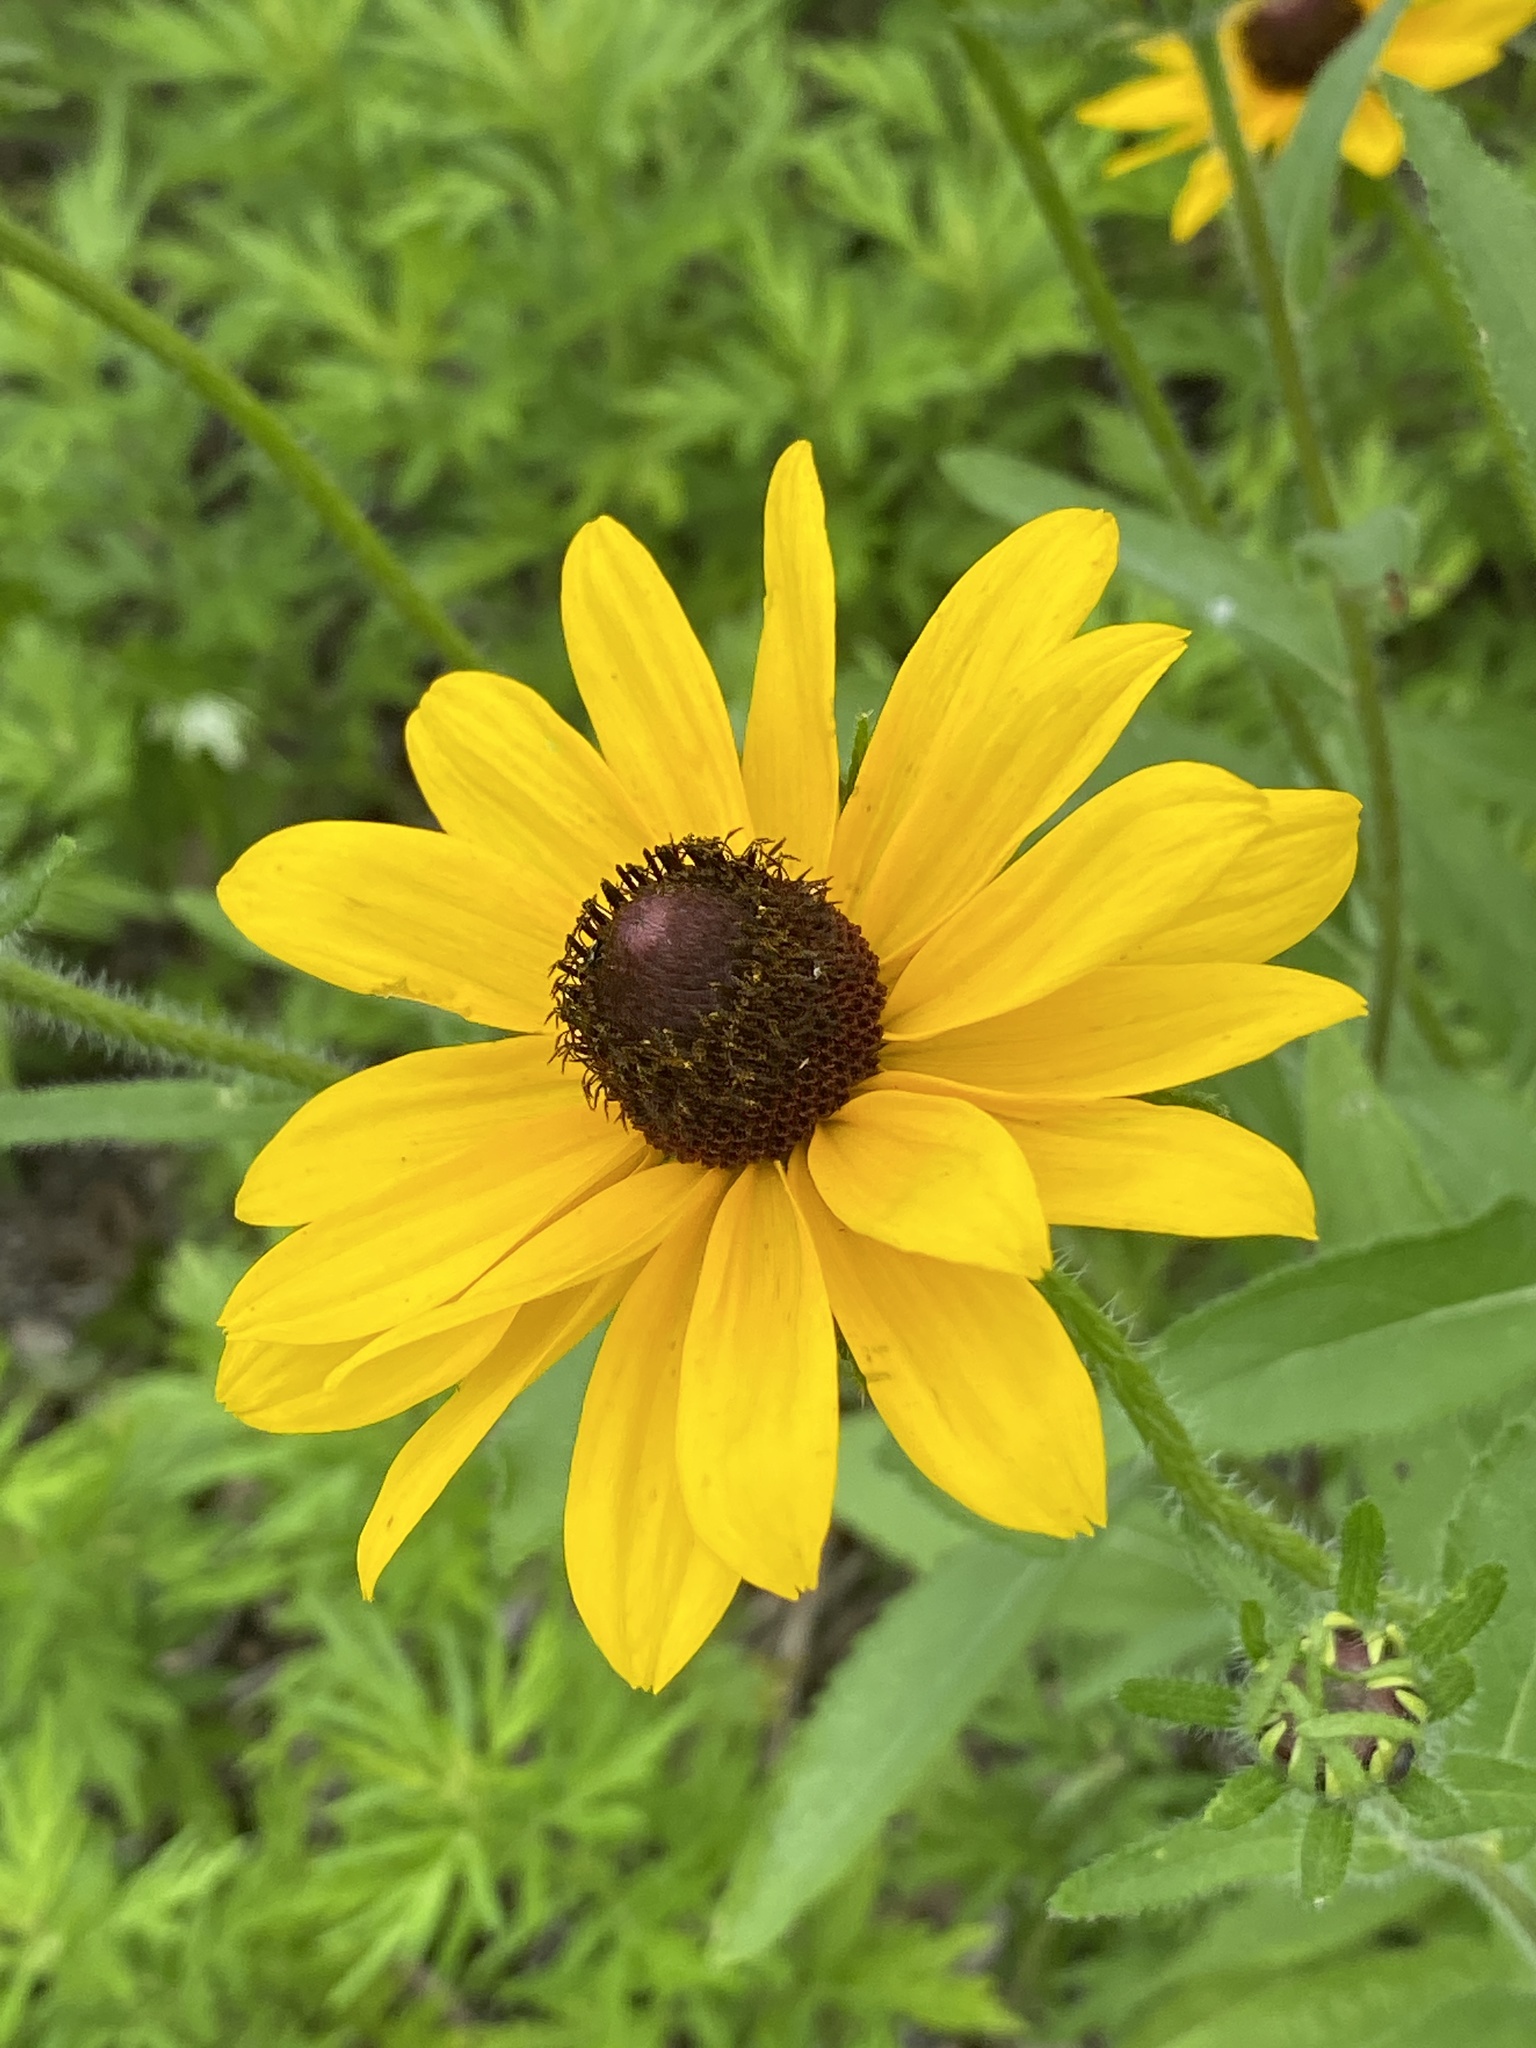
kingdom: Plantae
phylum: Tracheophyta
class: Magnoliopsida
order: Asterales
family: Asteraceae
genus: Rudbeckia
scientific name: Rudbeckia hirta
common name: Black-eyed-susan
